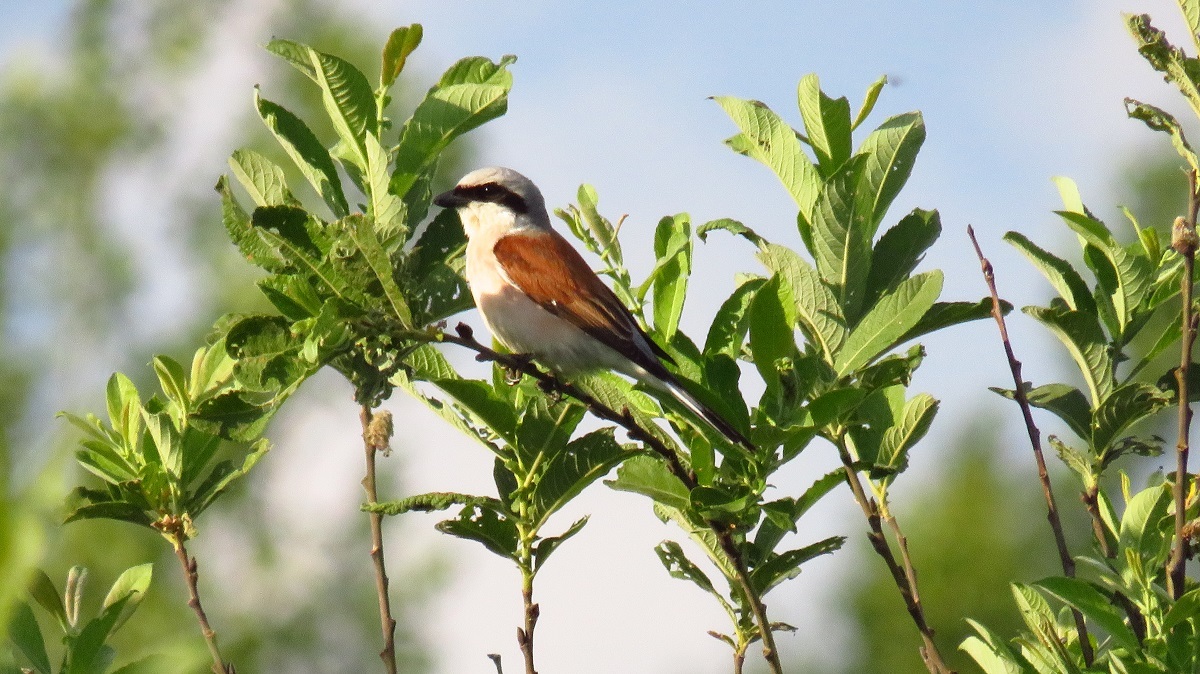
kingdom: Animalia
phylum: Chordata
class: Aves
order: Passeriformes
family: Laniidae
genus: Lanius
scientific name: Lanius collurio
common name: Red-backed shrike
